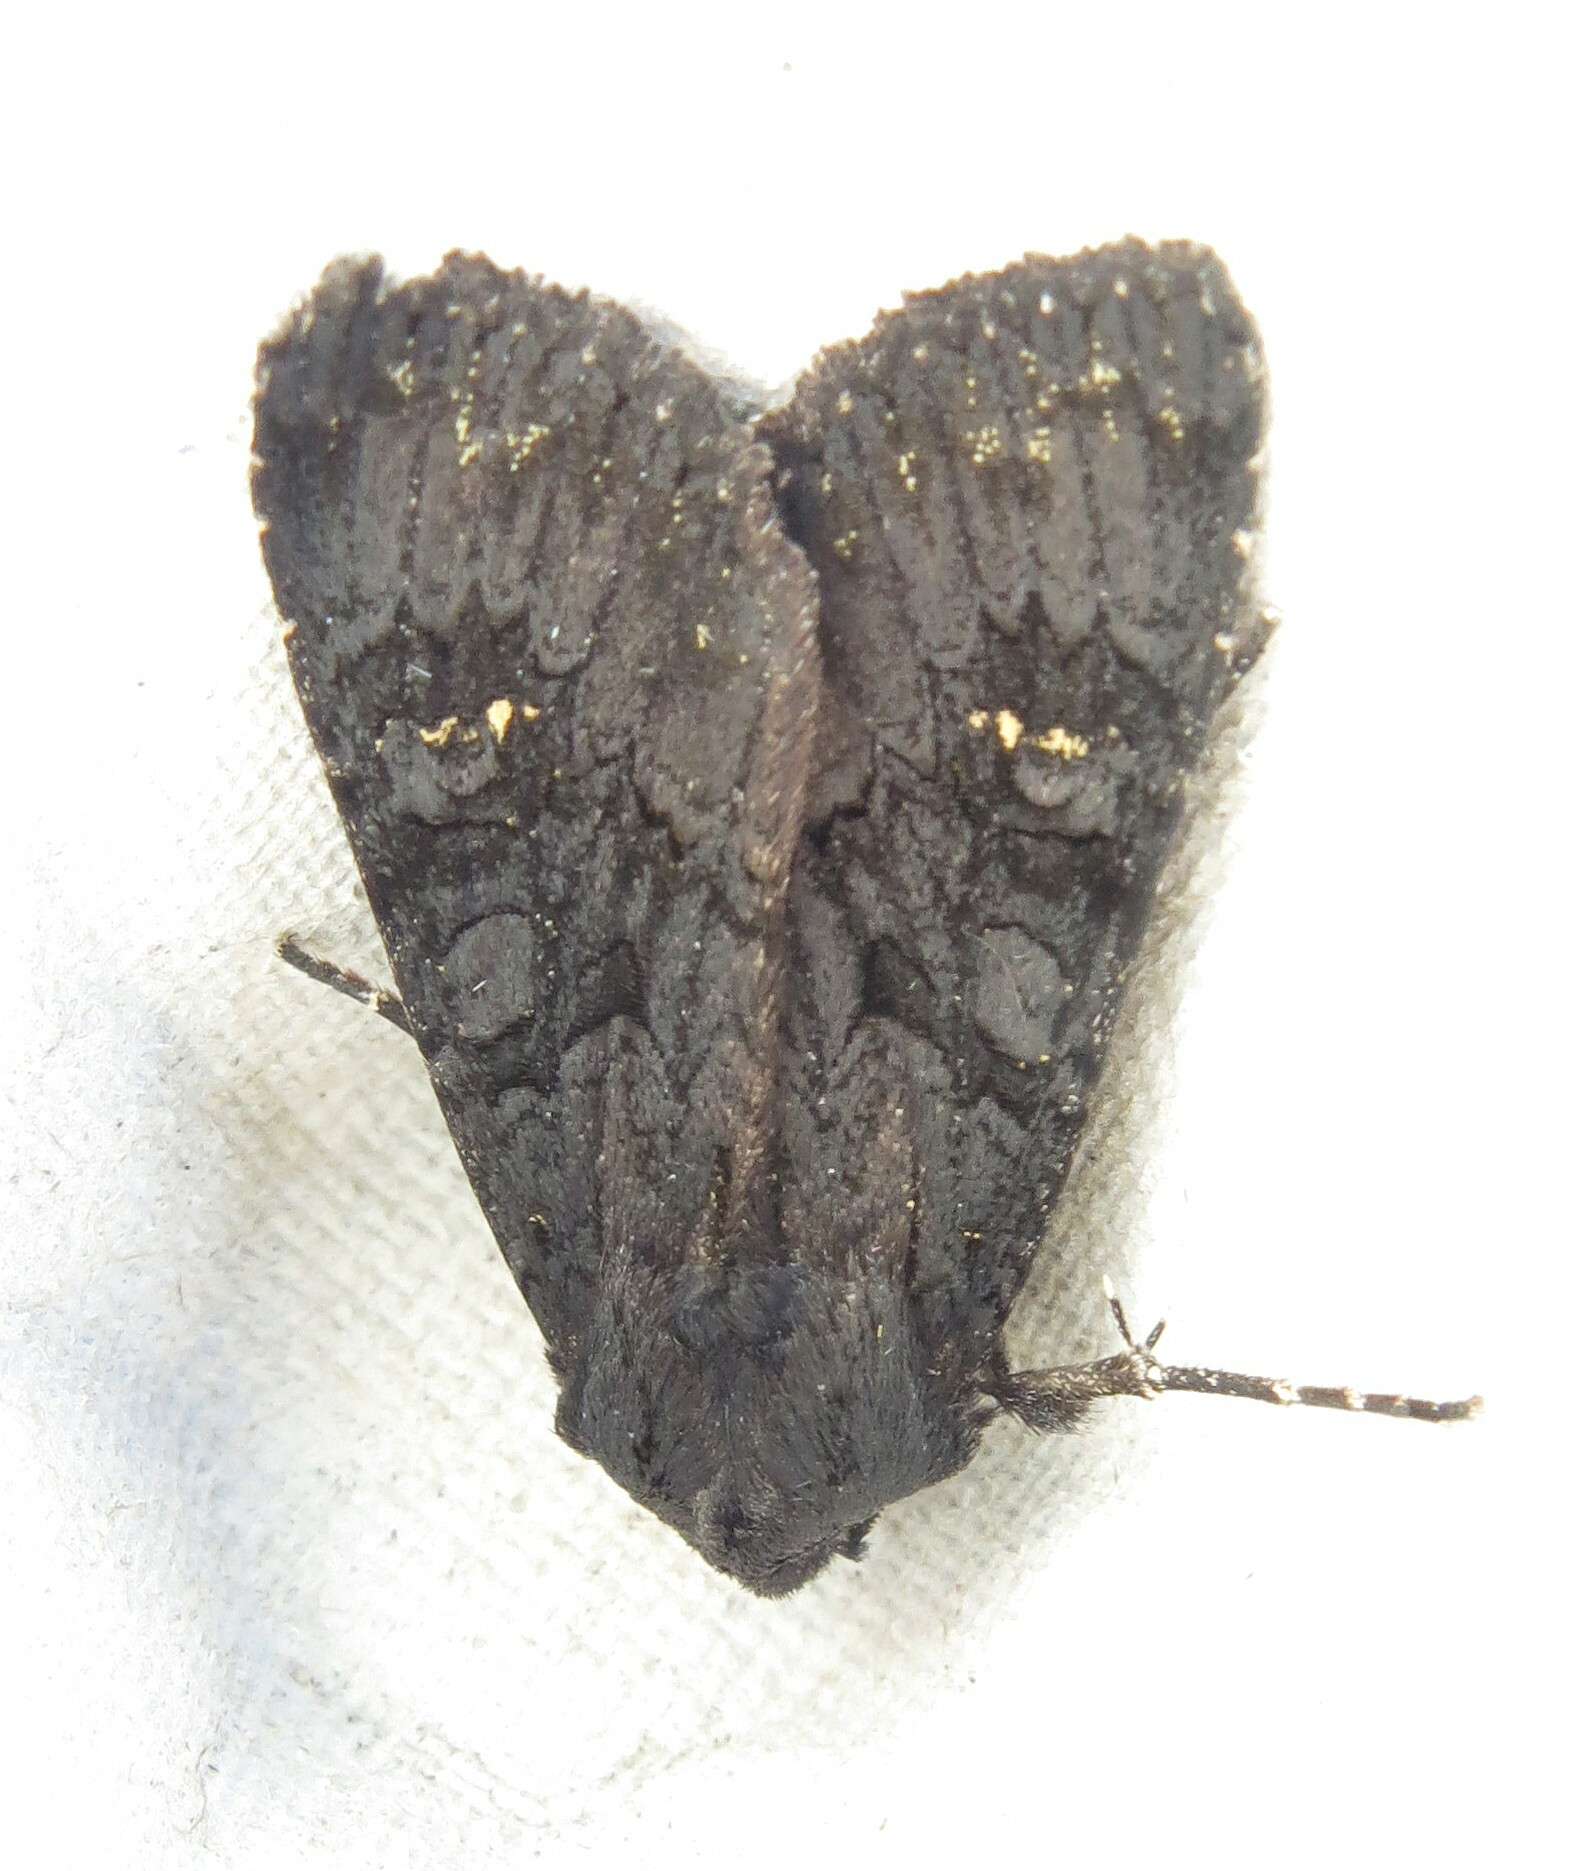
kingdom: Animalia
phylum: Arthropoda
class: Insecta
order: Lepidoptera
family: Noctuidae
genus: Aporophyla
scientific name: Aporophyla nigra
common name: Black rustic
